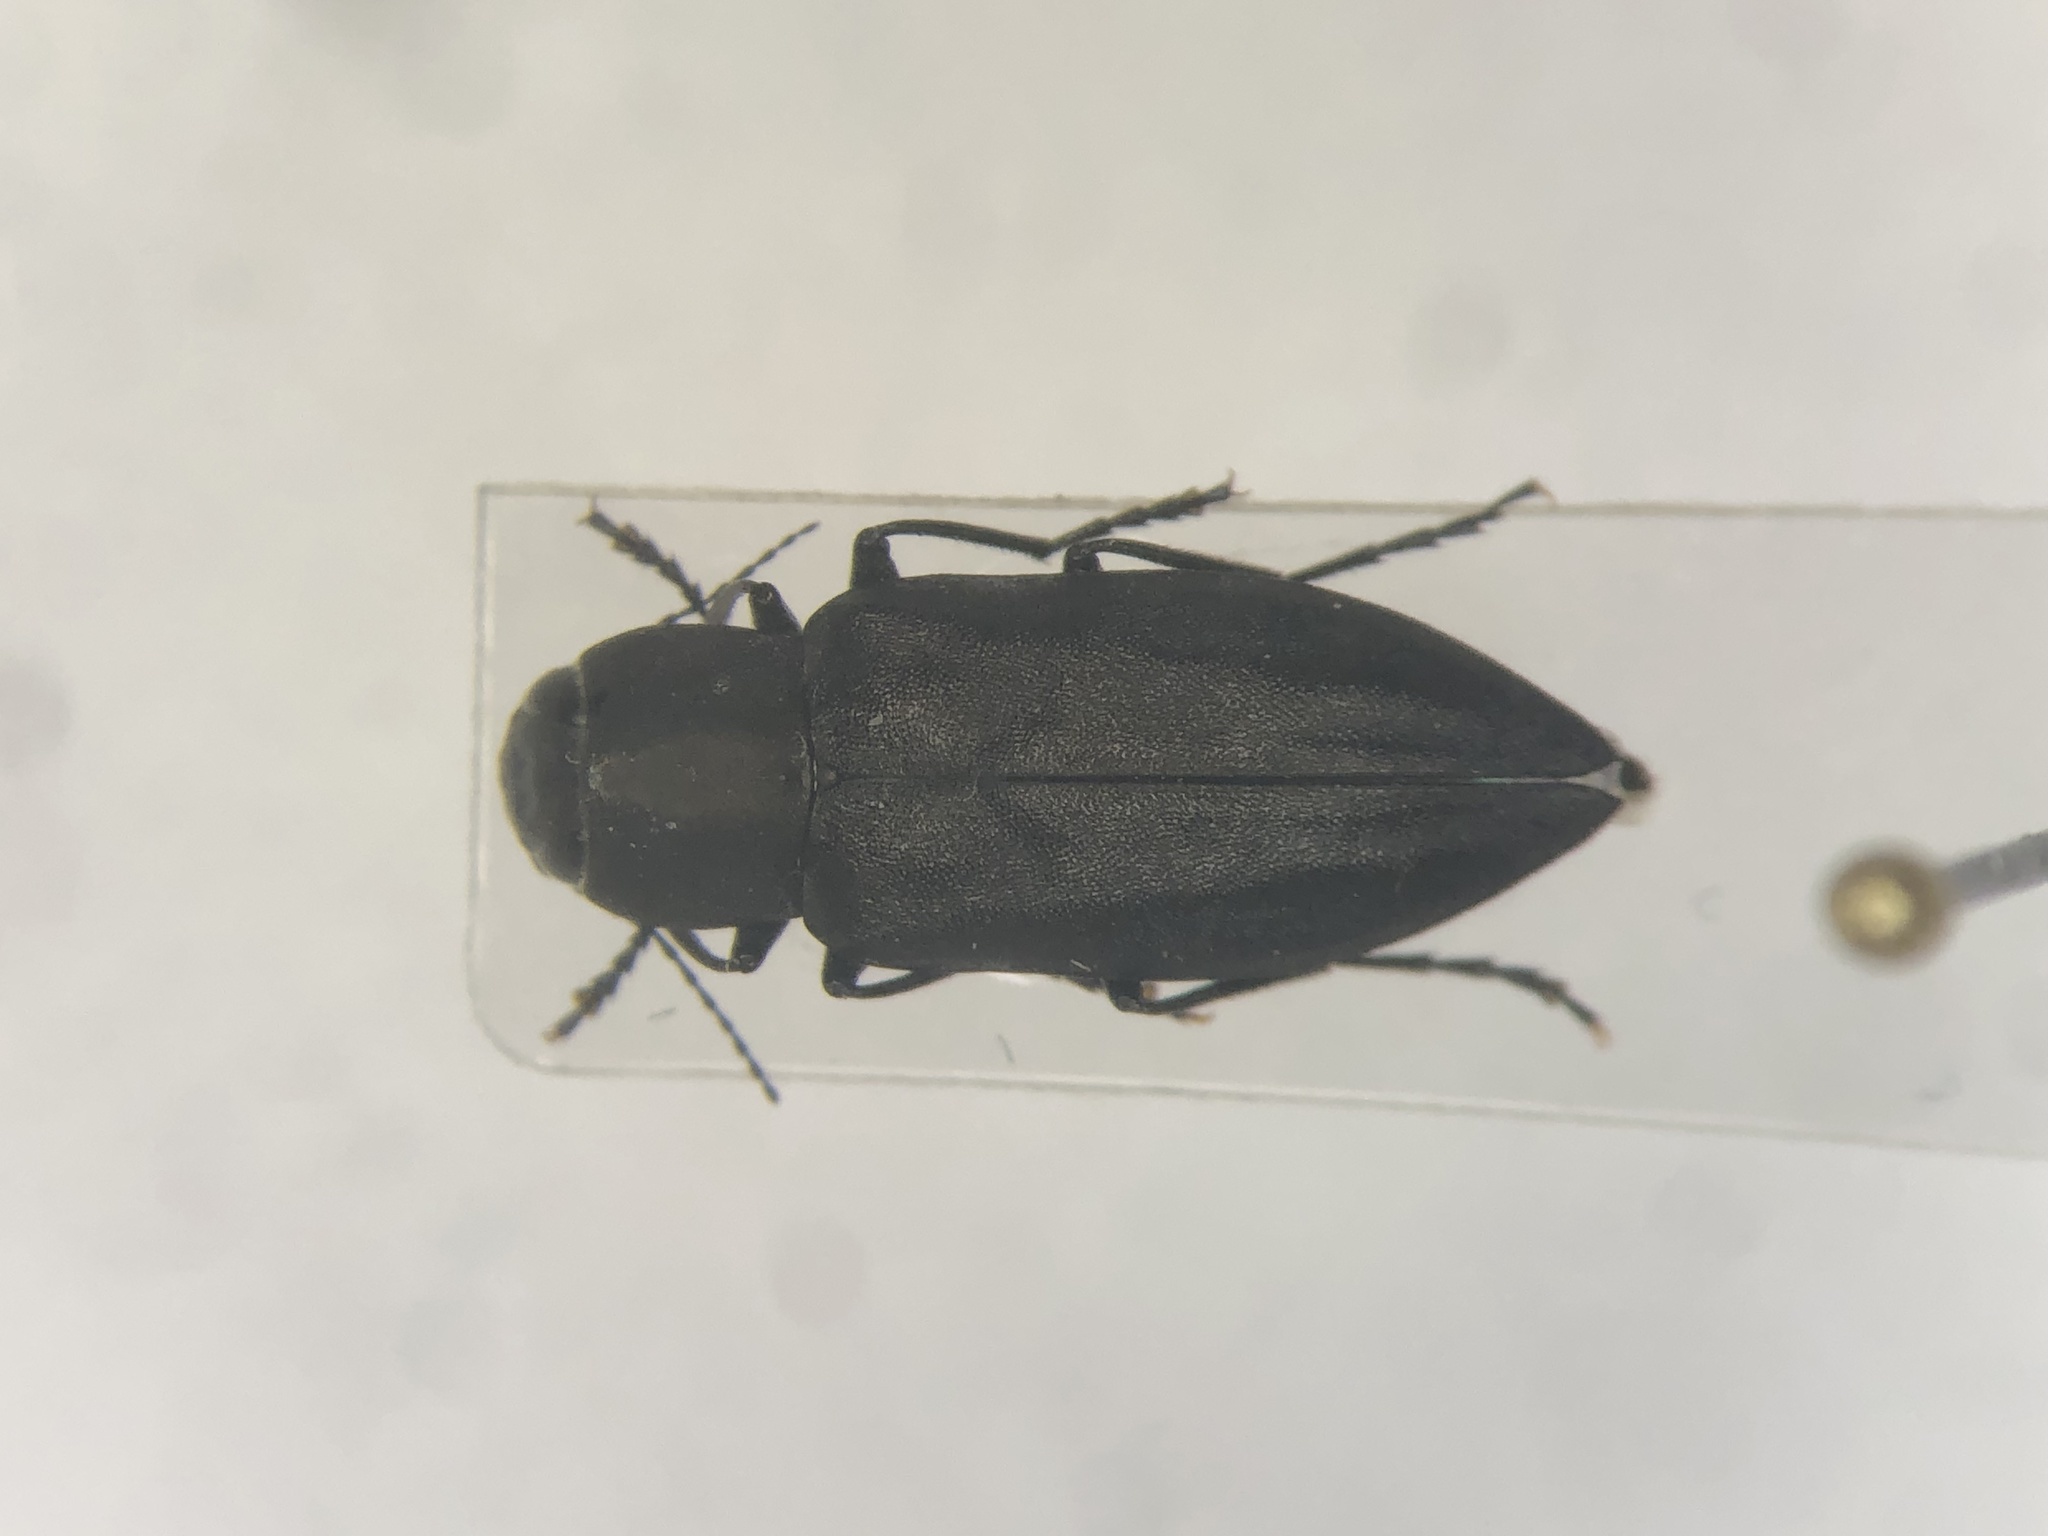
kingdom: Animalia
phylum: Arthropoda
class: Insecta
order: Coleoptera
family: Buprestidae
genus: Melanophila
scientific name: Melanophila acuminata
